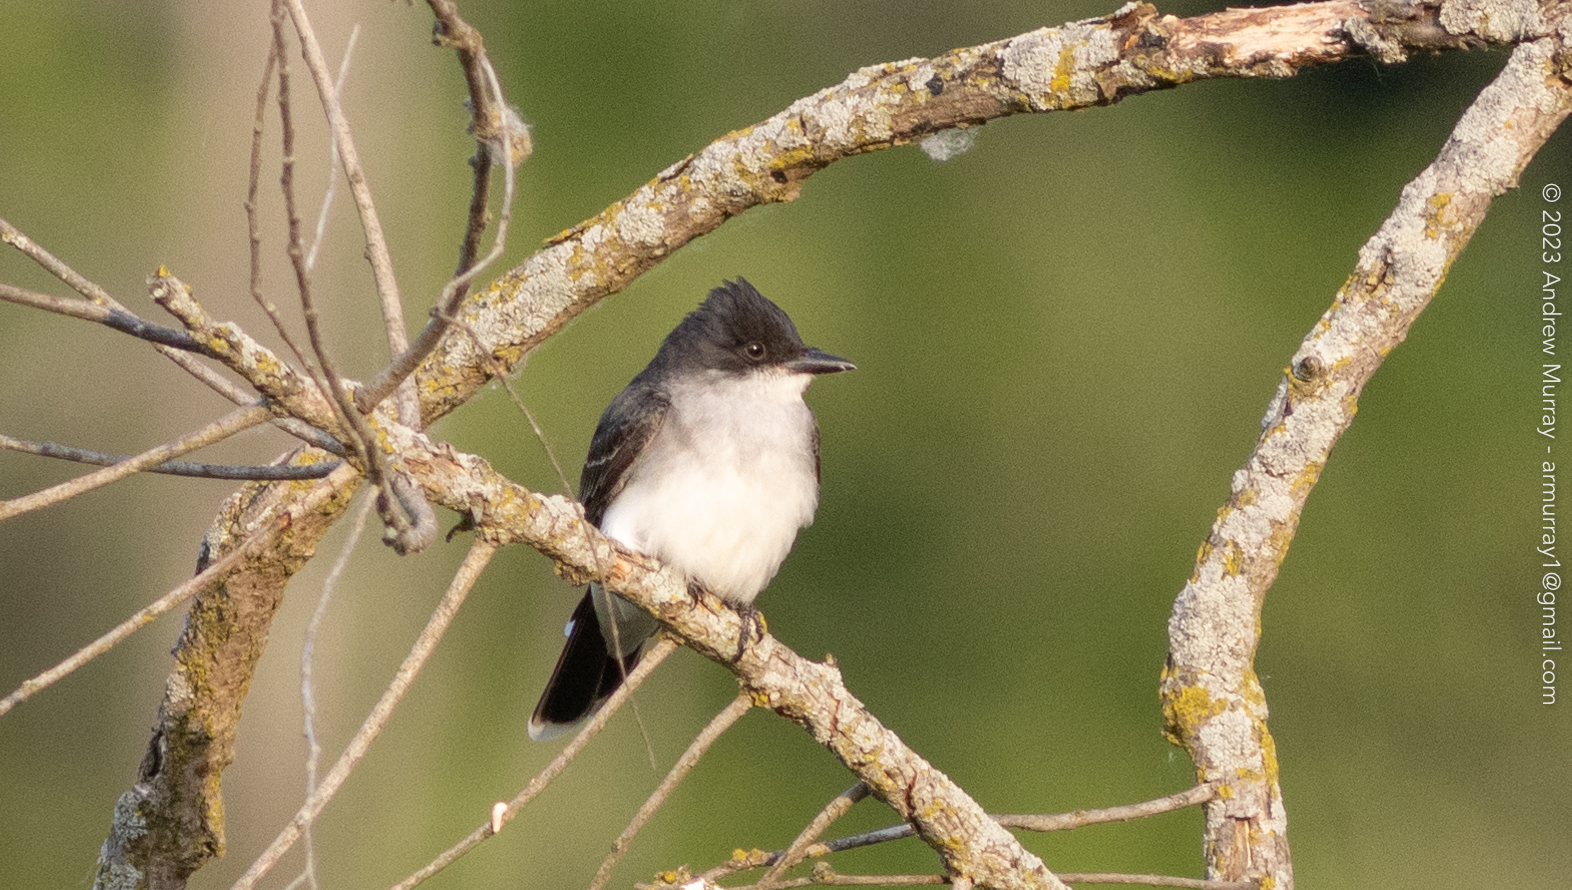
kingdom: Animalia
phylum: Chordata
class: Aves
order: Passeriformes
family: Tyrannidae
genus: Tyrannus
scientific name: Tyrannus tyrannus
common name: Eastern kingbird
